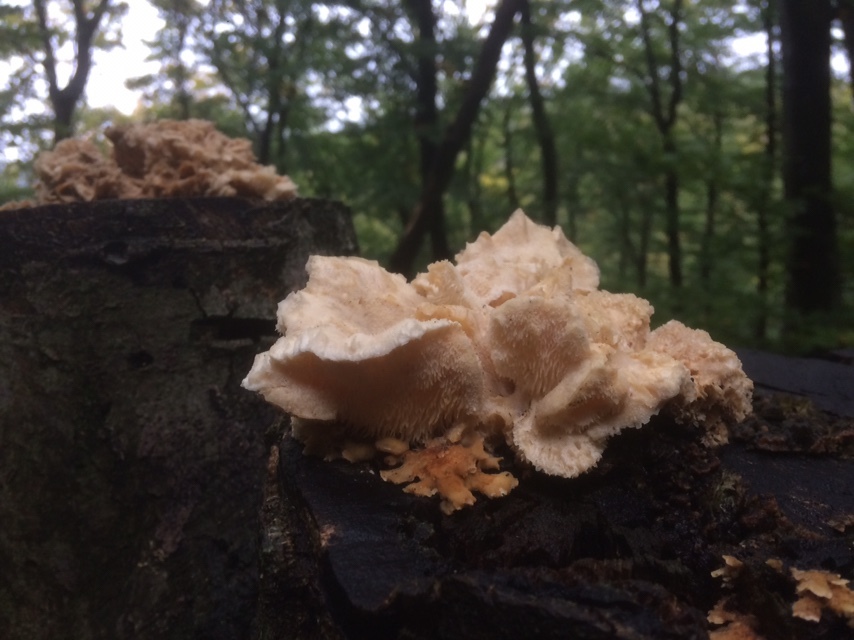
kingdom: Fungi
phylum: Basidiomycota
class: Agaricomycetes
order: Russulales
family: Hericiaceae
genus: Hericium
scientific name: Hericium cirrhatum
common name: Tiered tooth
